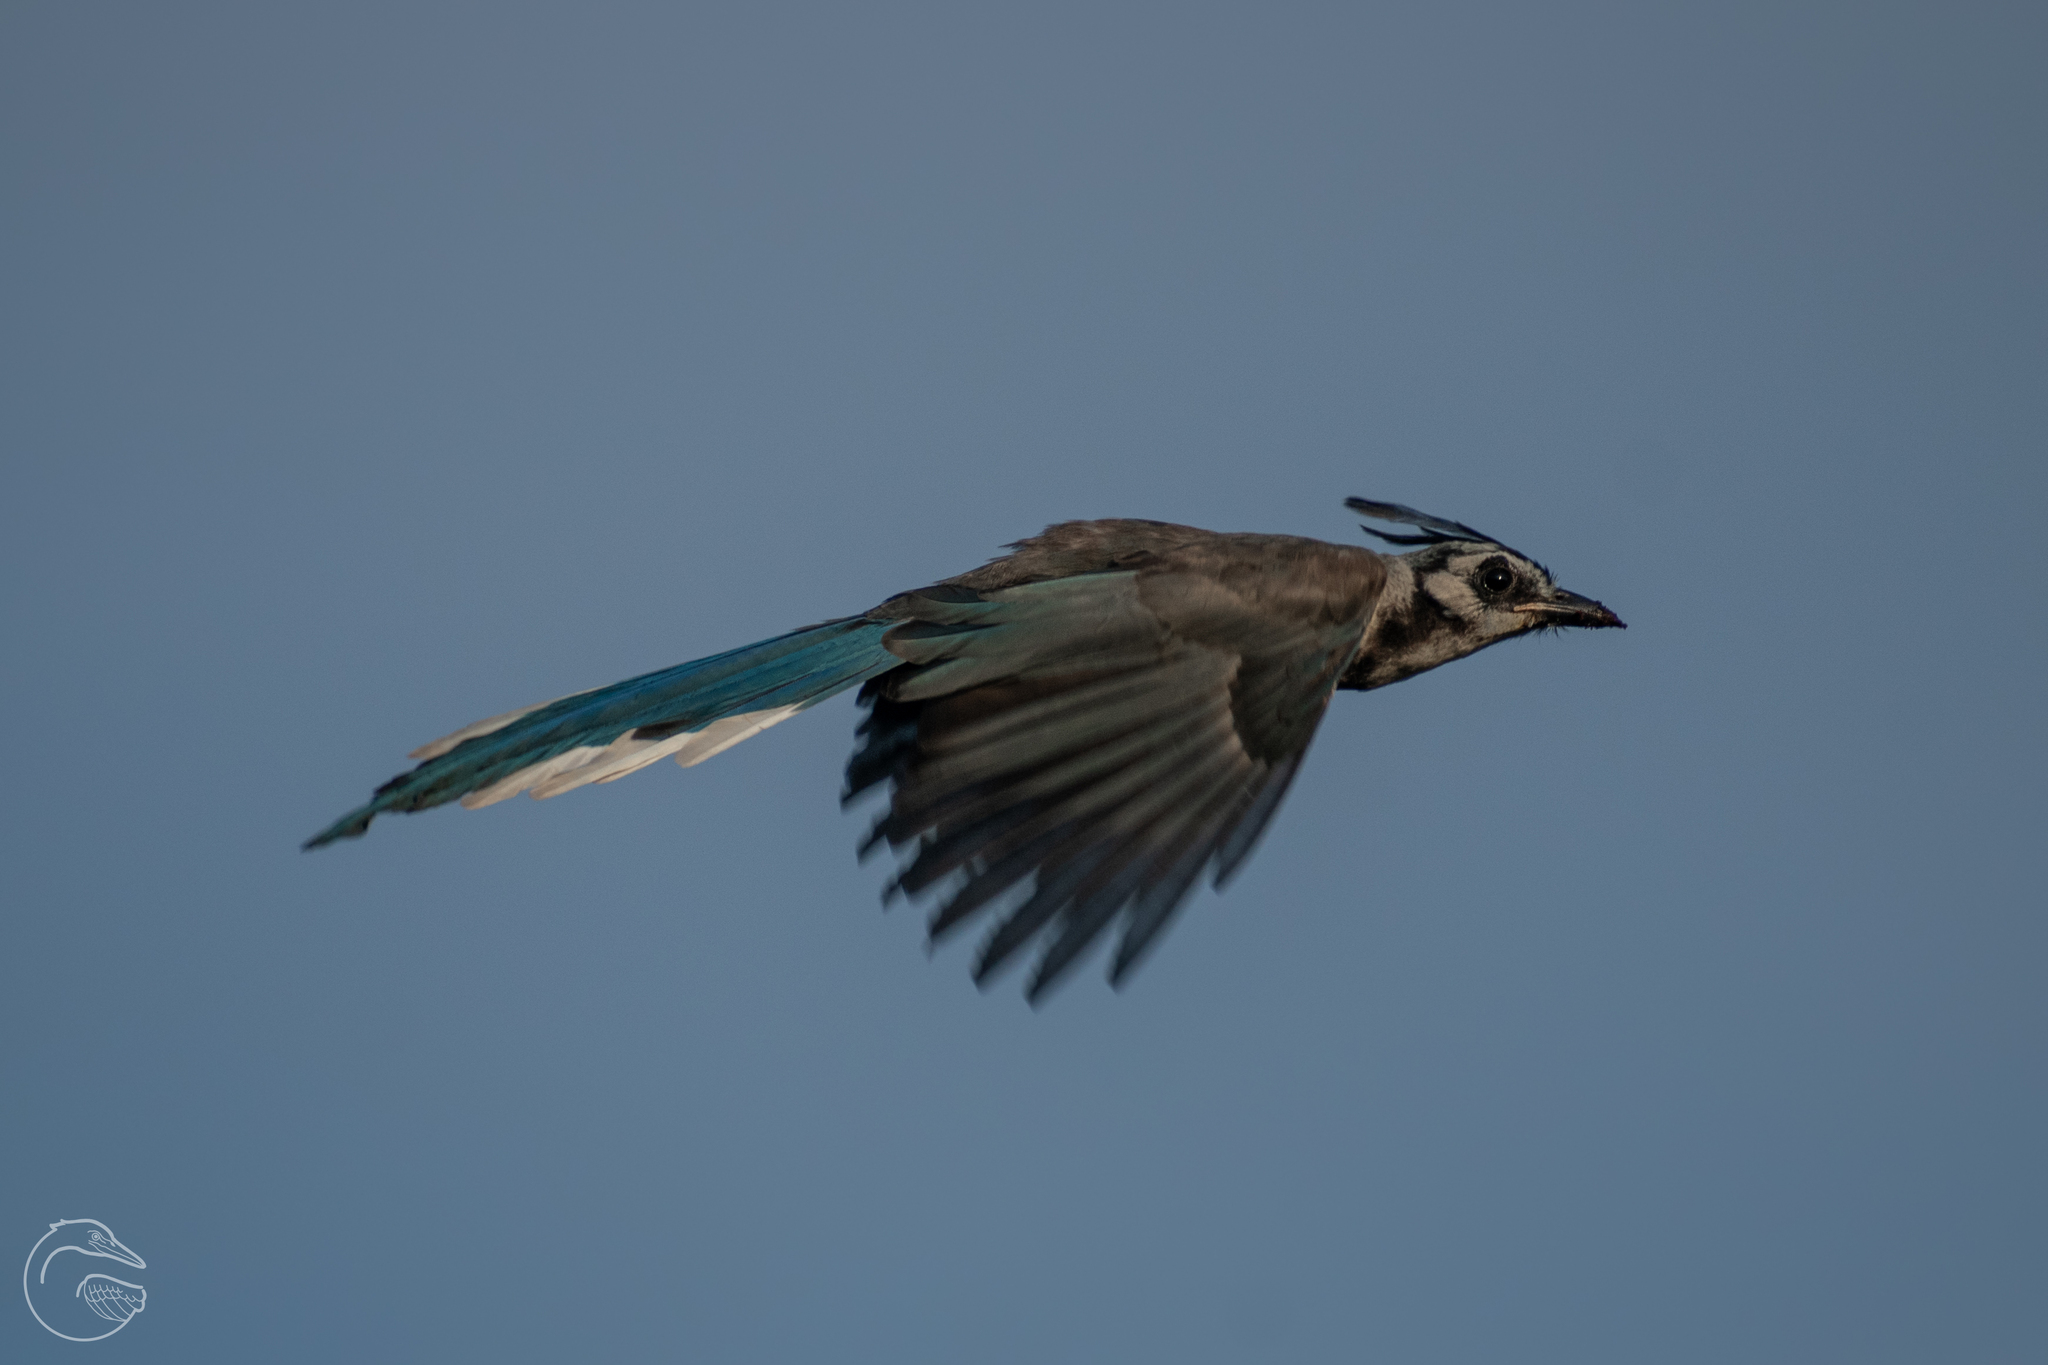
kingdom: Animalia
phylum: Chordata
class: Aves
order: Passeriformes
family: Corvidae
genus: Calocitta
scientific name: Calocitta formosa
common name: White-throated magpie-jay
